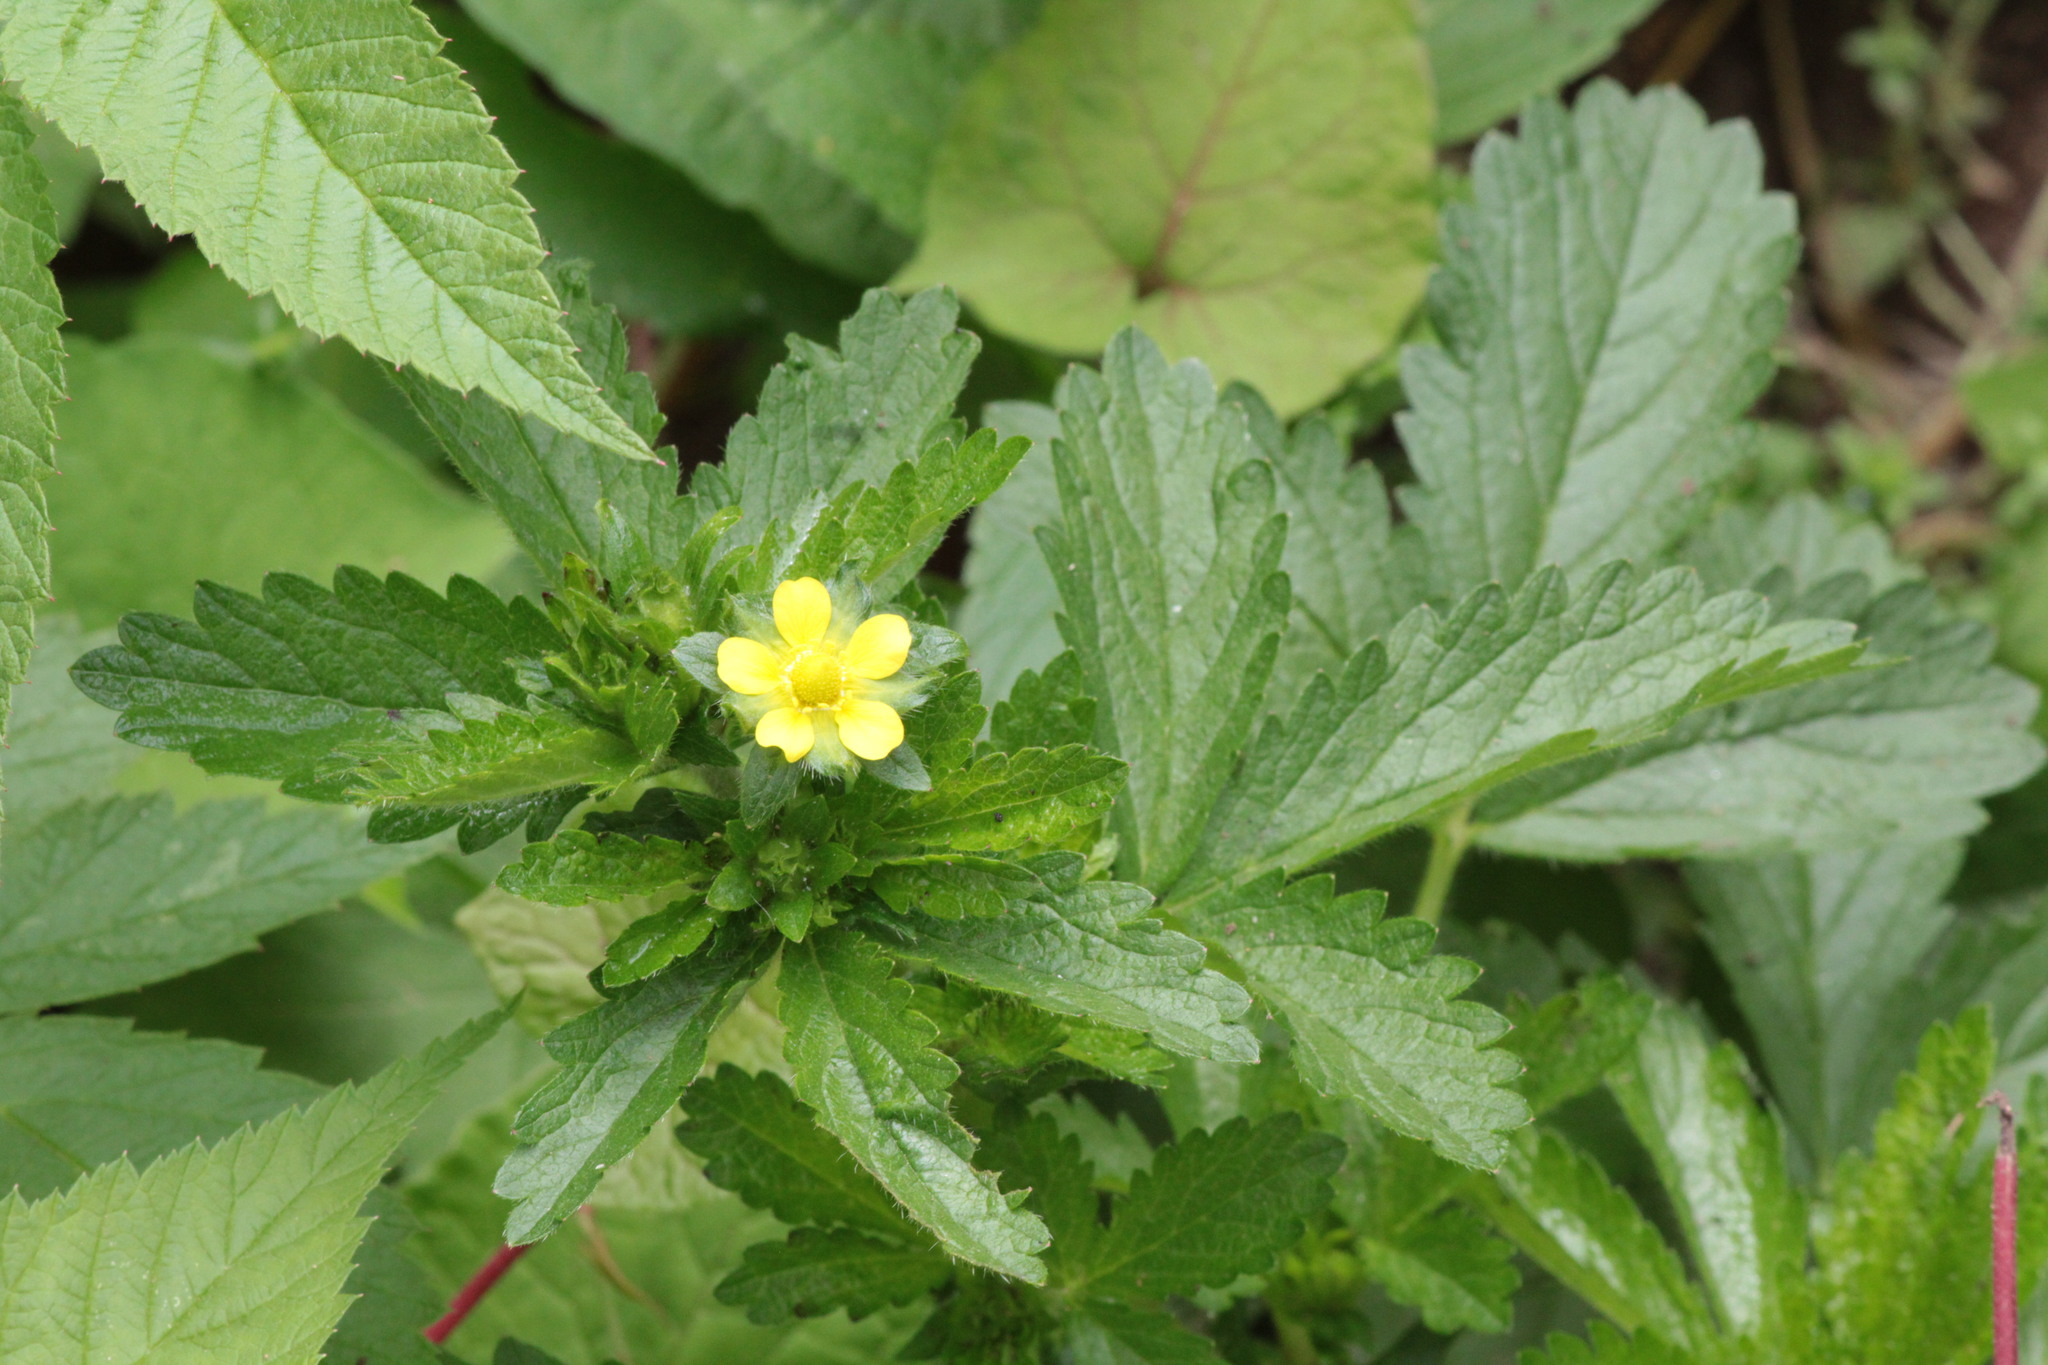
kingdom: Plantae
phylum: Tracheophyta
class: Magnoliopsida
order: Rosales
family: Rosaceae
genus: Potentilla
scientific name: Potentilla norvegica
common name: Ternate-leaved cinquefoil
